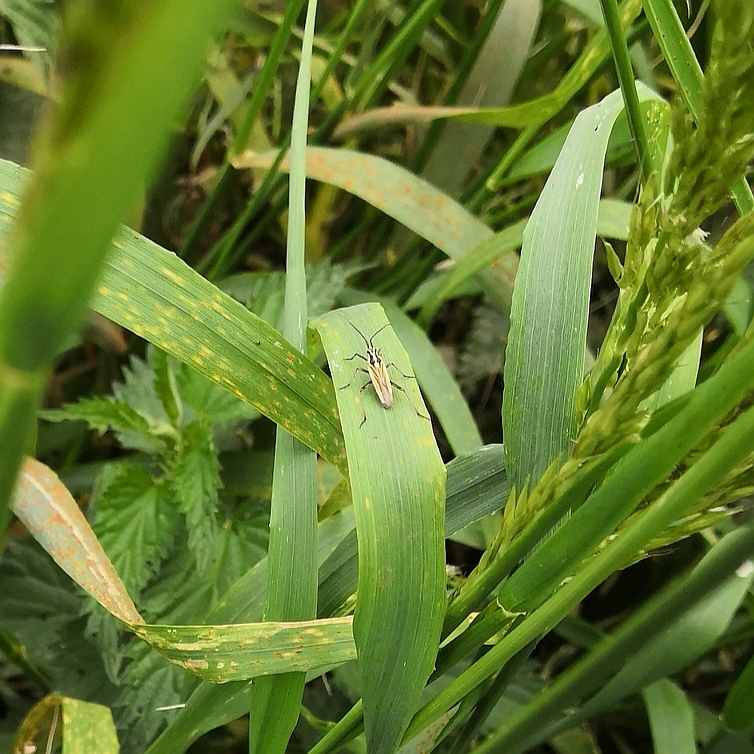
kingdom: Animalia
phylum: Arthropoda
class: Insecta
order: Hemiptera
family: Miridae
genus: Leptopterna
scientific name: Leptopterna dolabrata
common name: Meadow plant bug
